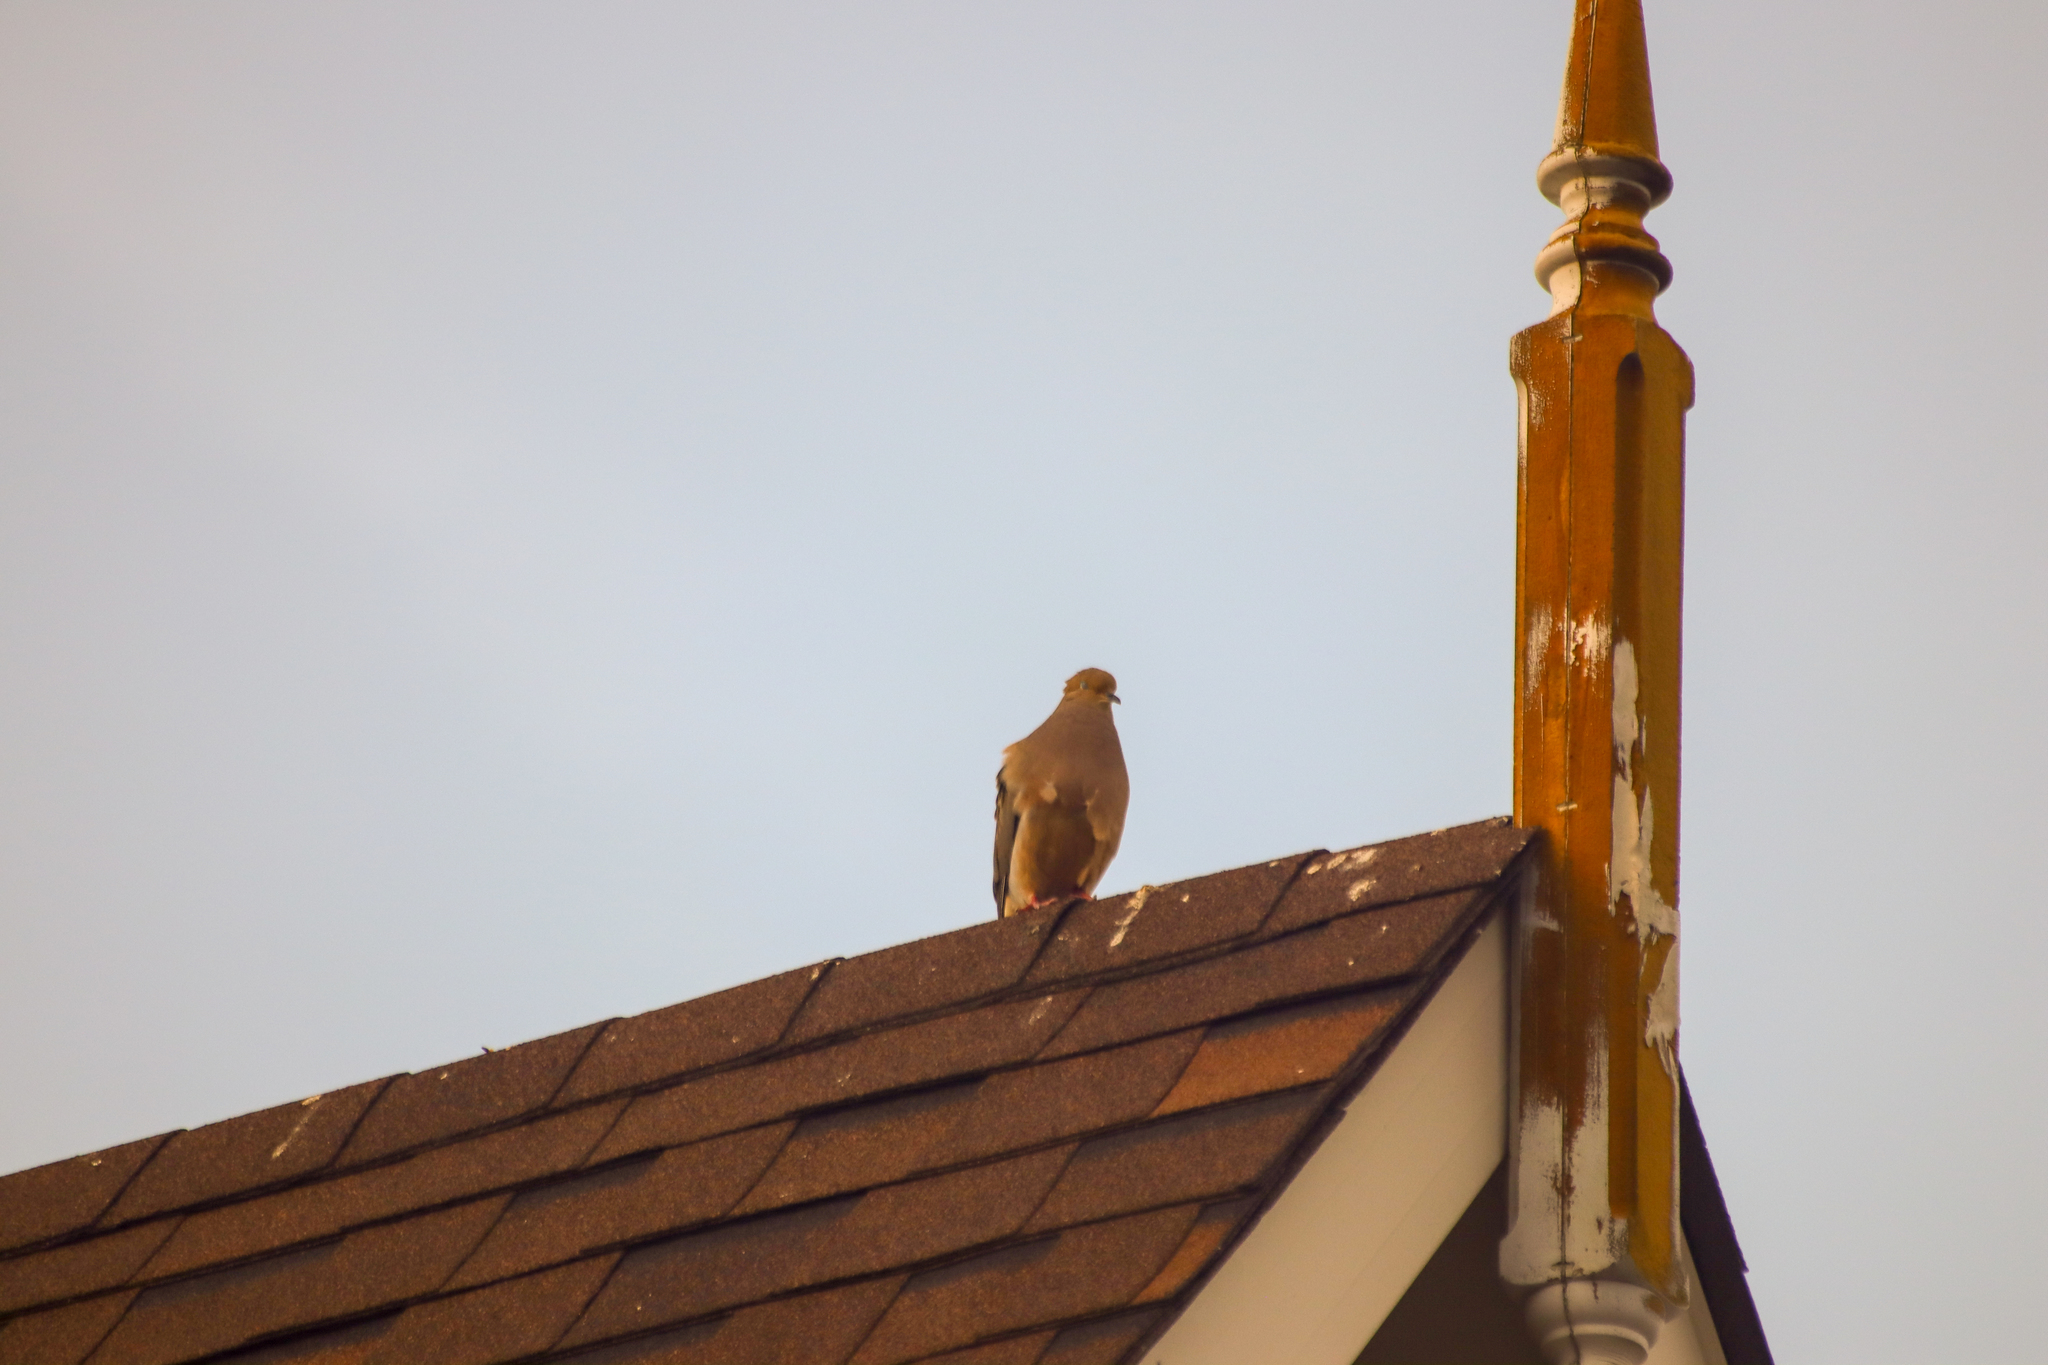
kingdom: Animalia
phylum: Chordata
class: Aves
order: Columbiformes
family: Columbidae
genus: Zenaida
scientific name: Zenaida macroura
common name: Mourning dove
